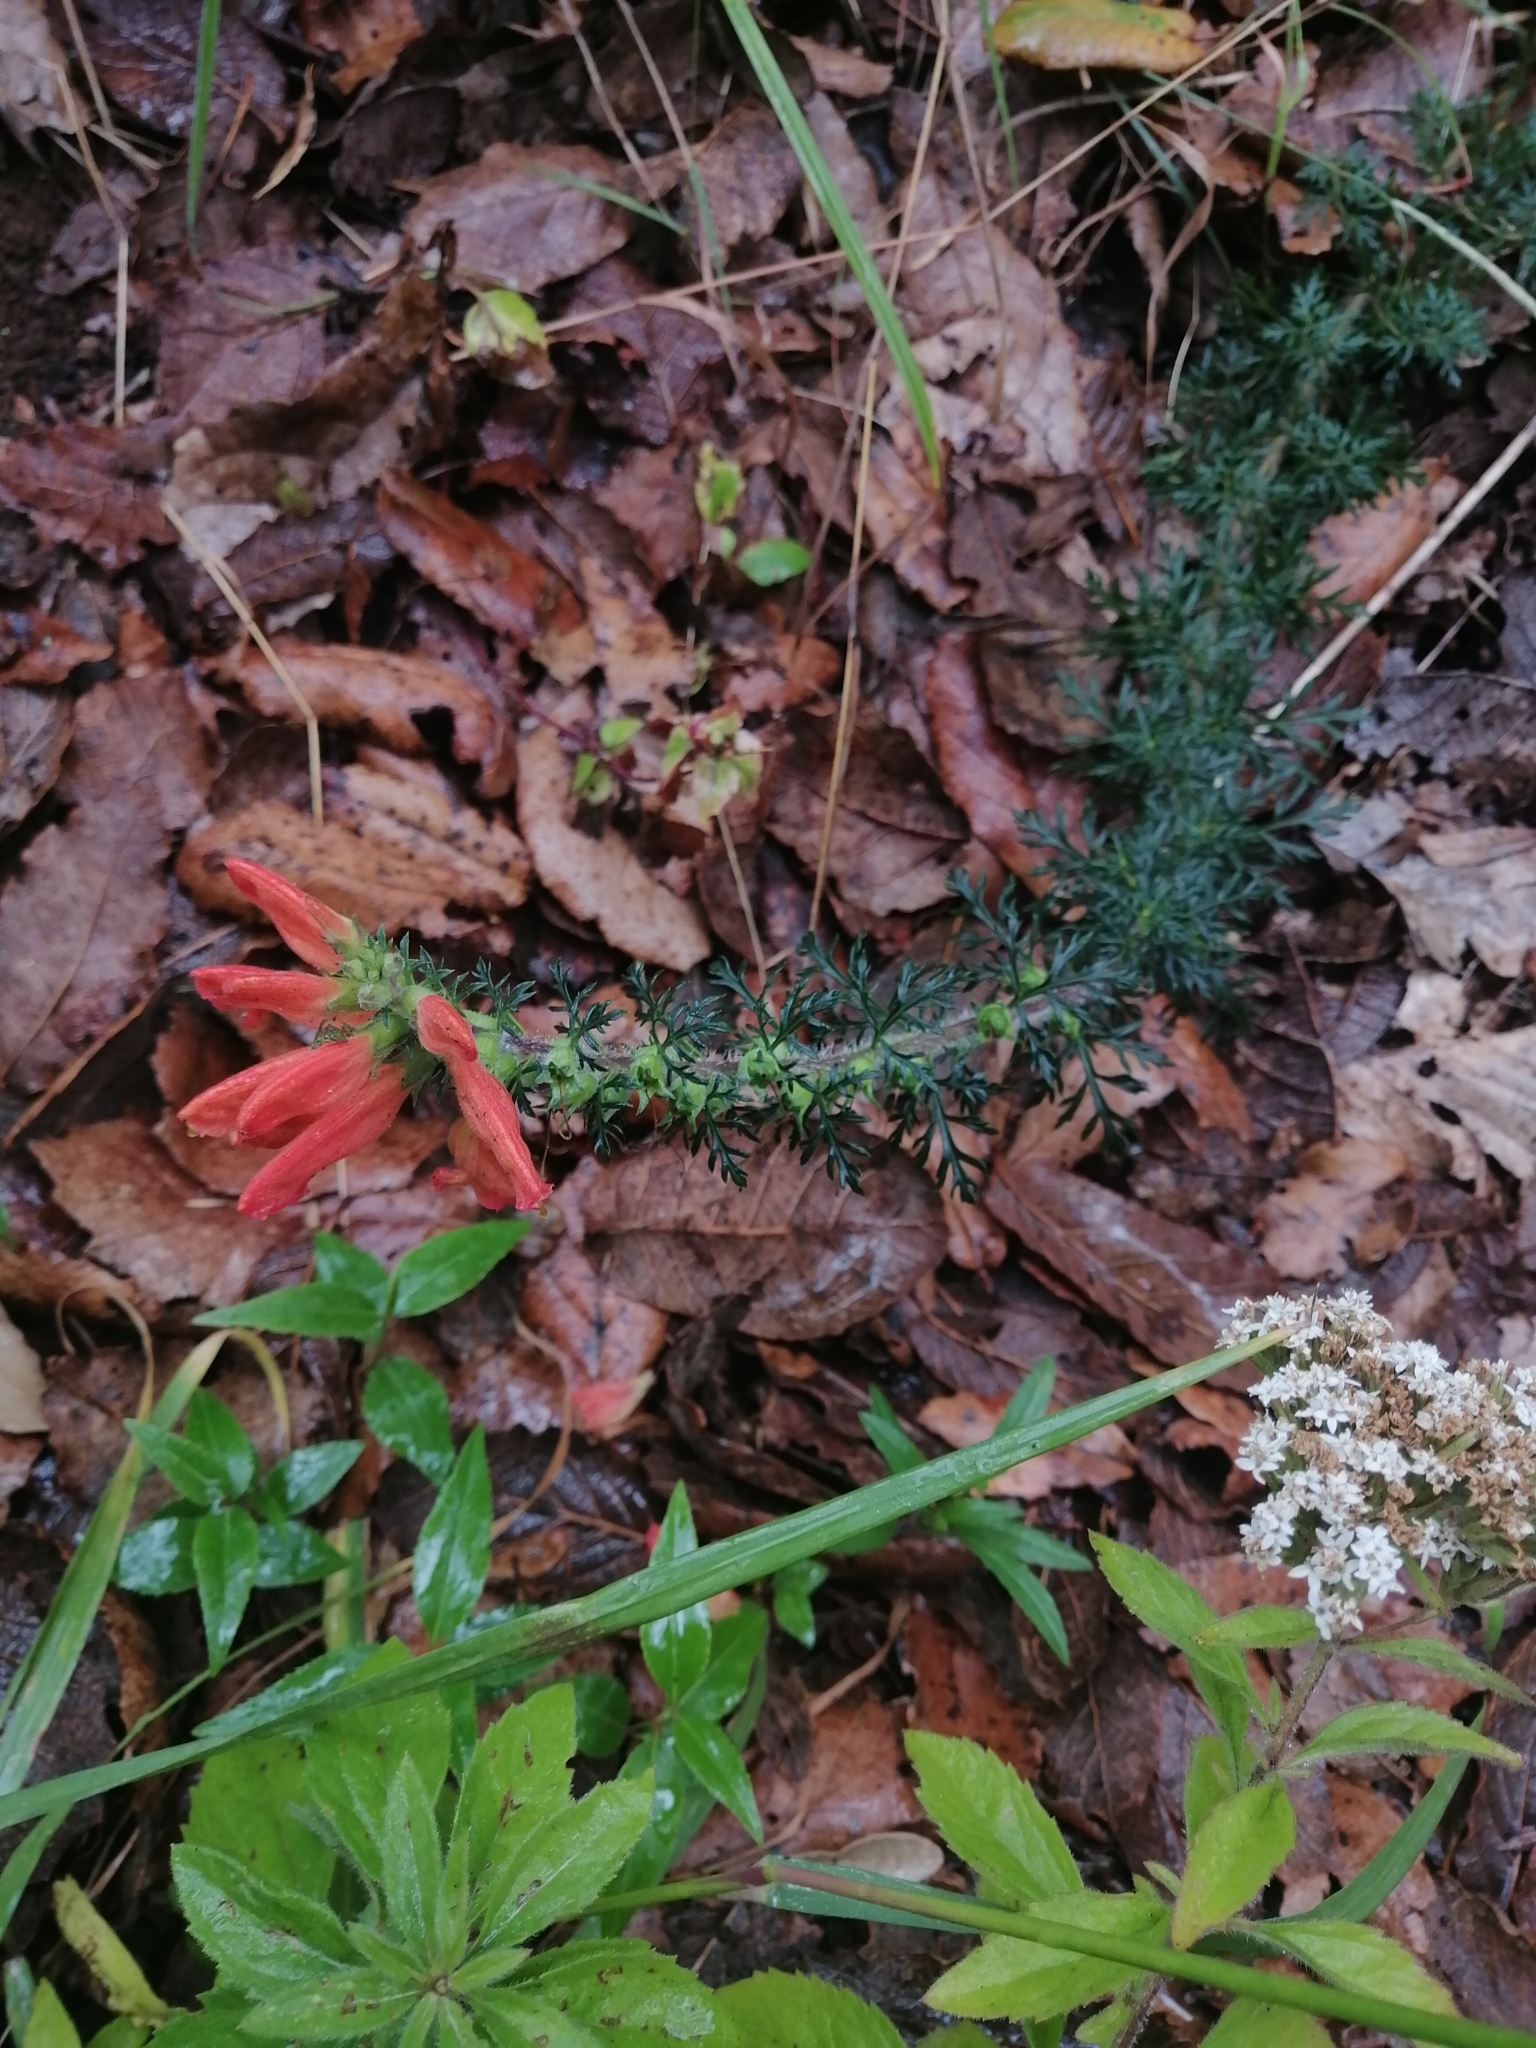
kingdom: Plantae
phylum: Tracheophyta
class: Magnoliopsida
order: Lamiales
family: Orobanchaceae
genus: Lamourouxia
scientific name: Lamourouxia multifida
